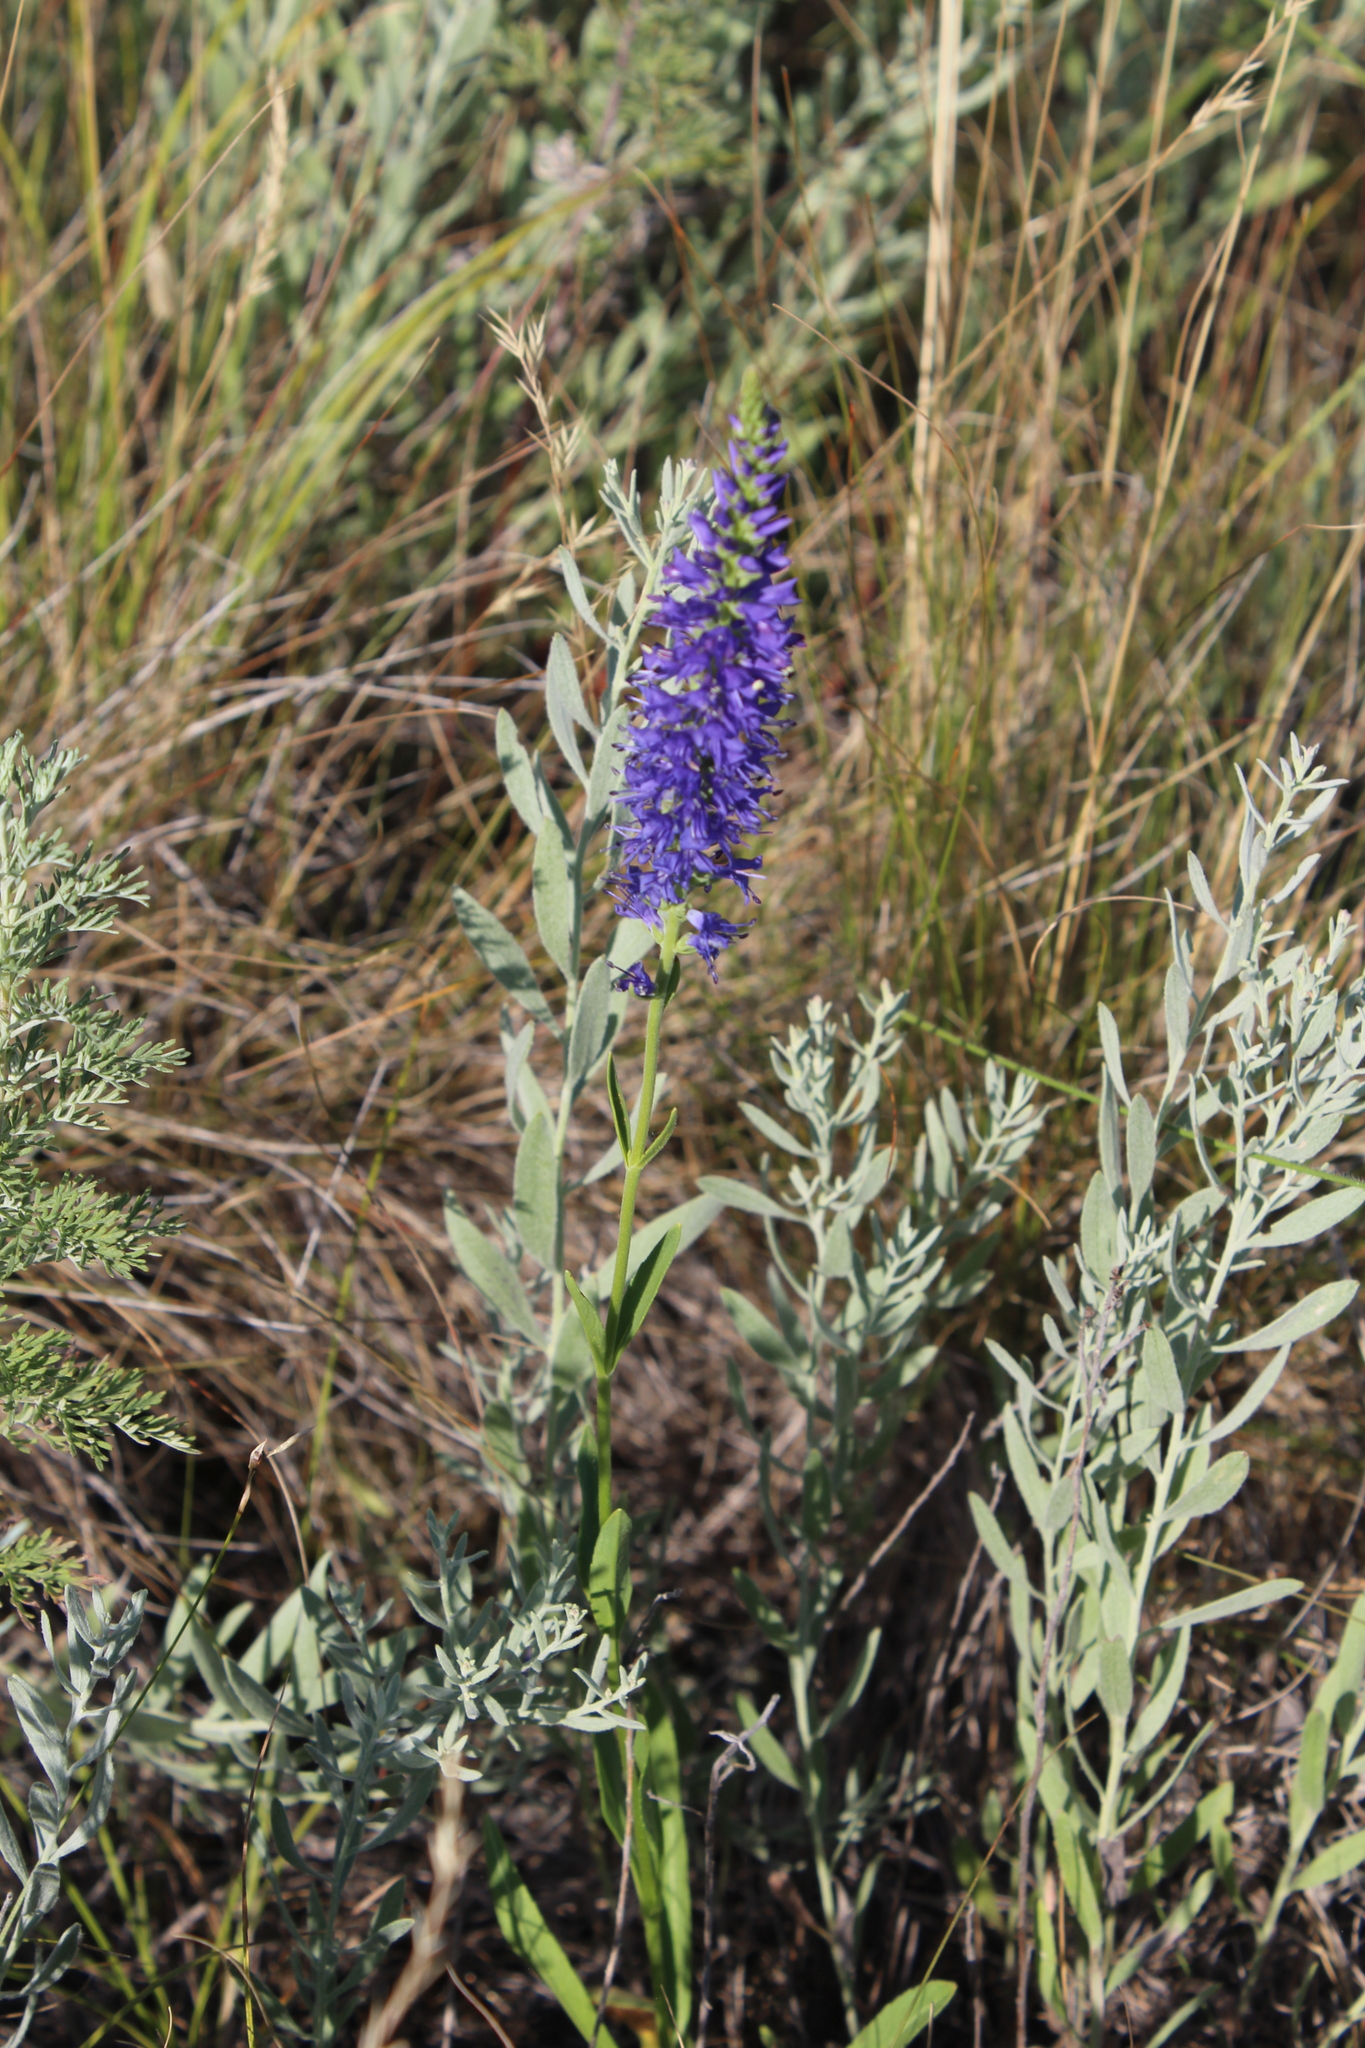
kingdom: Plantae
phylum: Tracheophyta
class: Magnoliopsida
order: Lamiales
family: Plantaginaceae
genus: Veronica
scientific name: Veronica spicata
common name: Spiked speedwell
